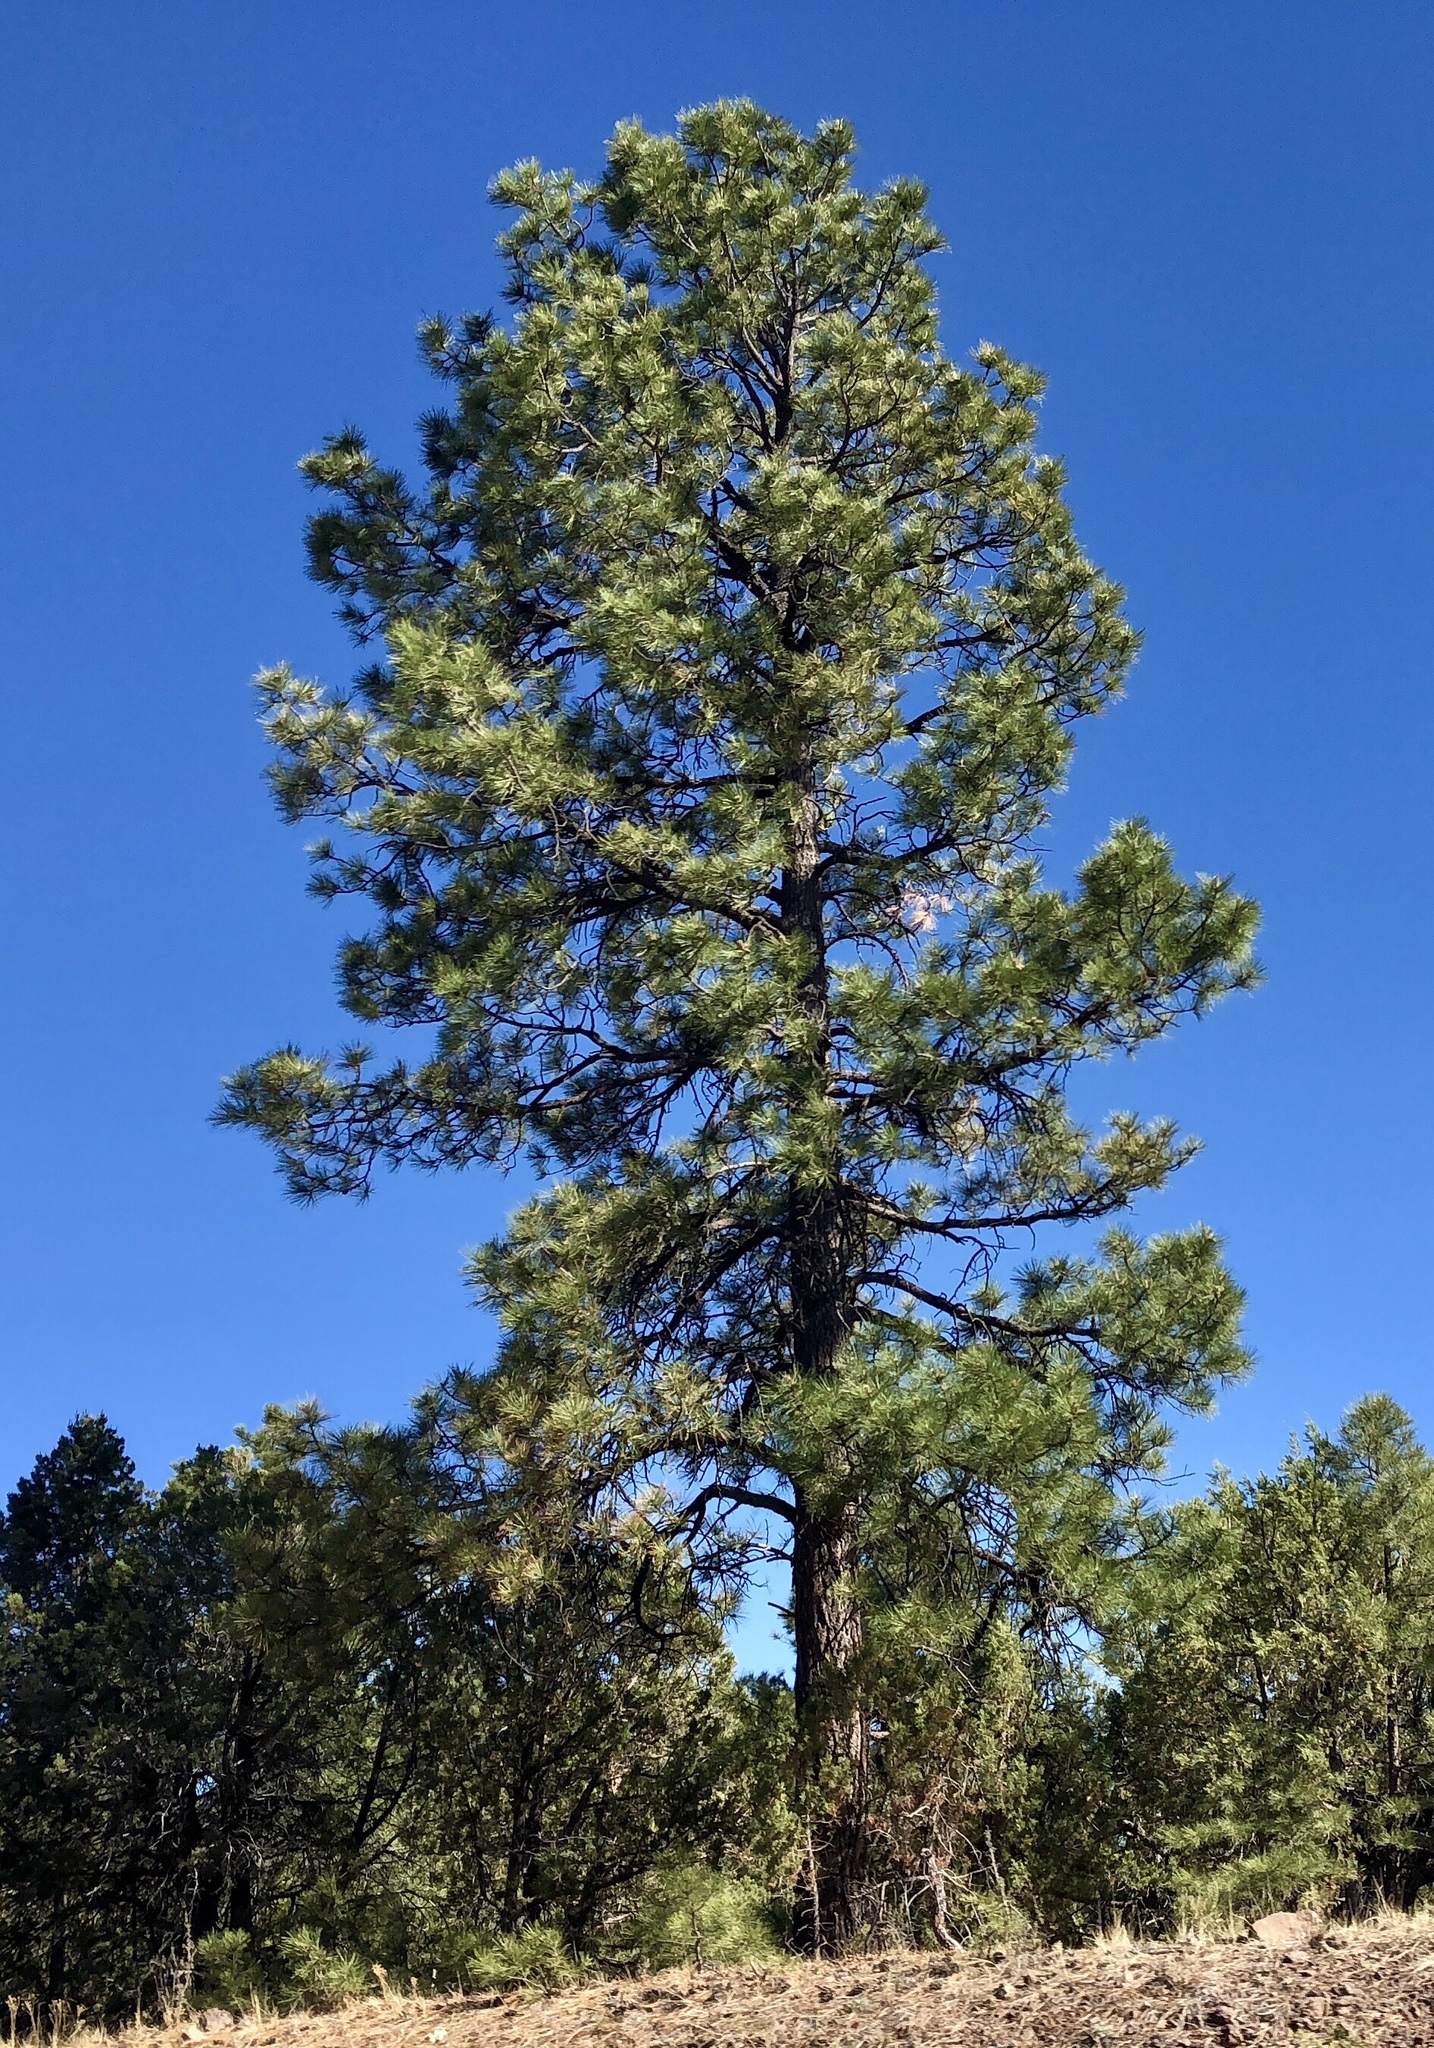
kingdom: Plantae
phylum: Tracheophyta
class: Pinopsida
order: Pinales
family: Pinaceae
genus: Pinus
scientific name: Pinus ponderosa
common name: Western yellow-pine
